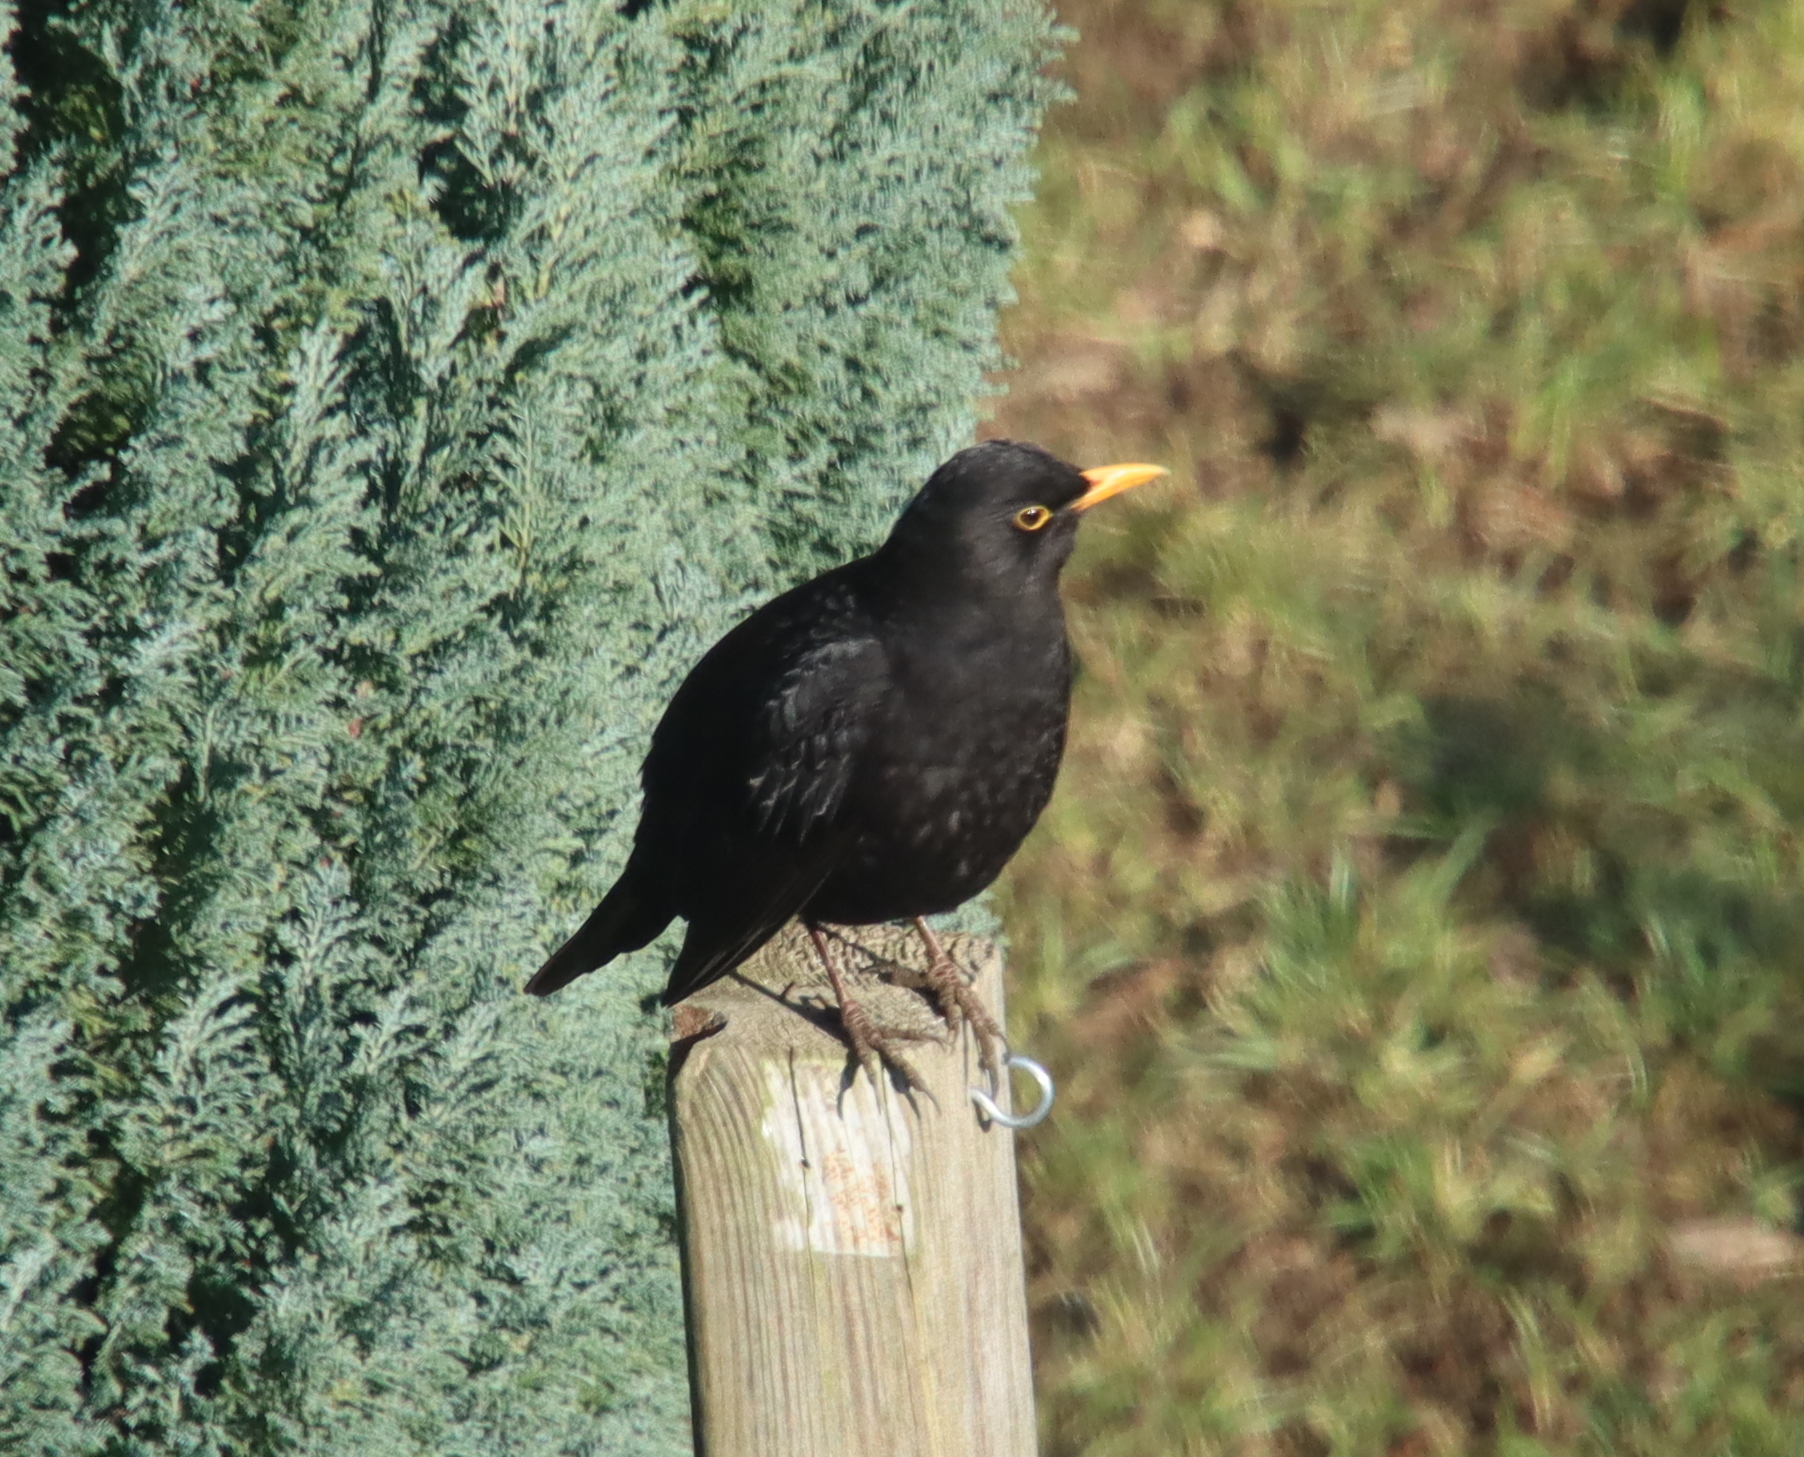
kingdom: Animalia
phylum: Chordata
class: Aves
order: Passeriformes
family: Turdidae
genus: Turdus
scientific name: Turdus merula
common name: Common blackbird
